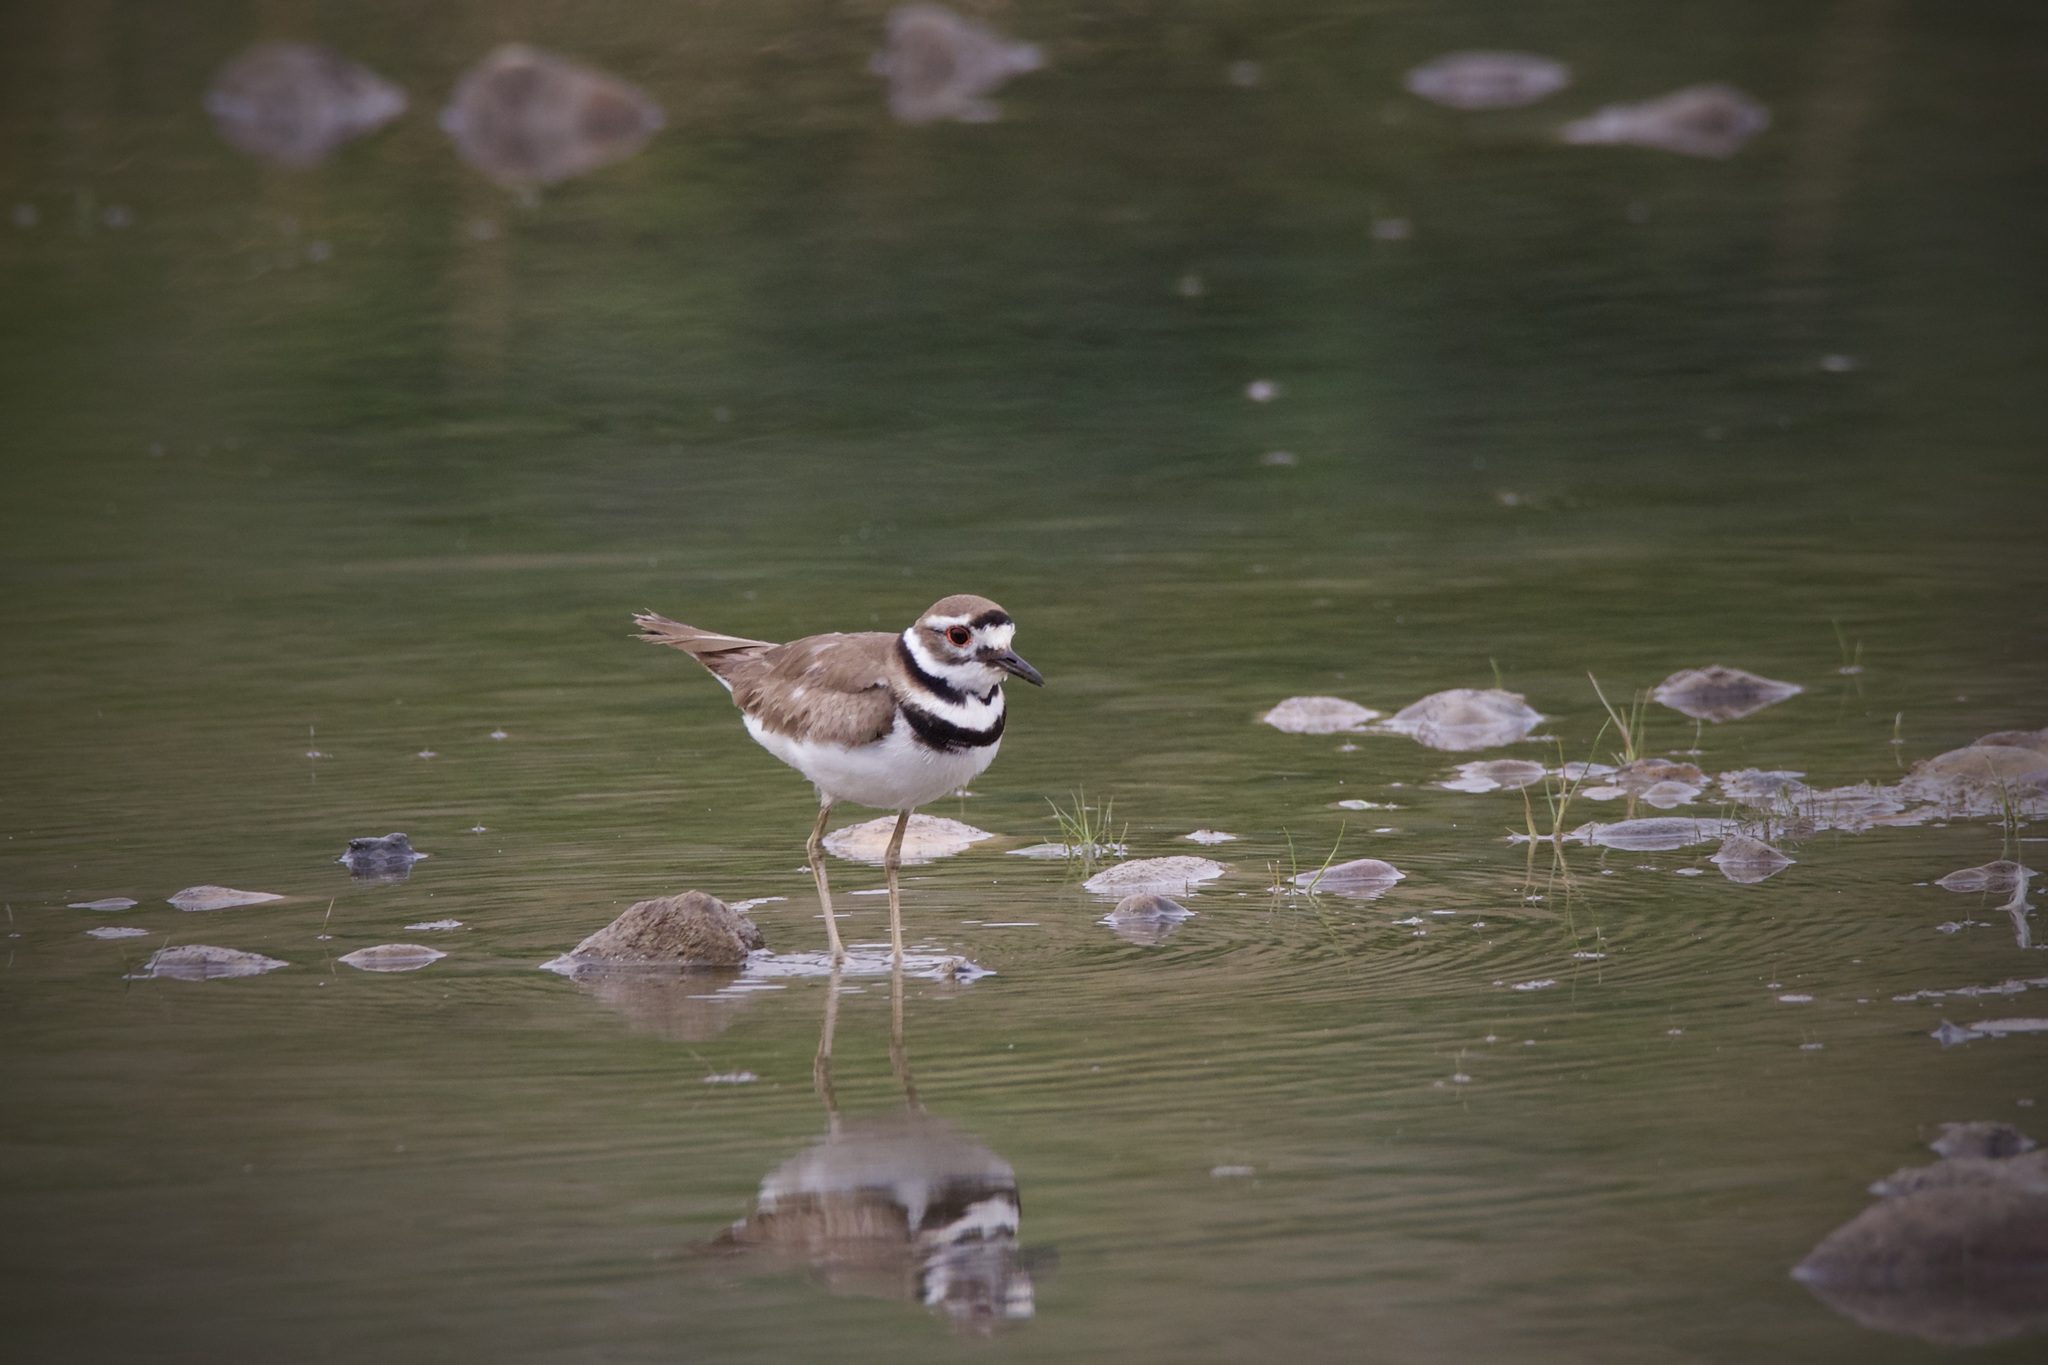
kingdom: Animalia
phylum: Chordata
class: Aves
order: Charadriiformes
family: Charadriidae
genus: Charadrius
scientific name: Charadrius vociferus
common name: Killdeer
